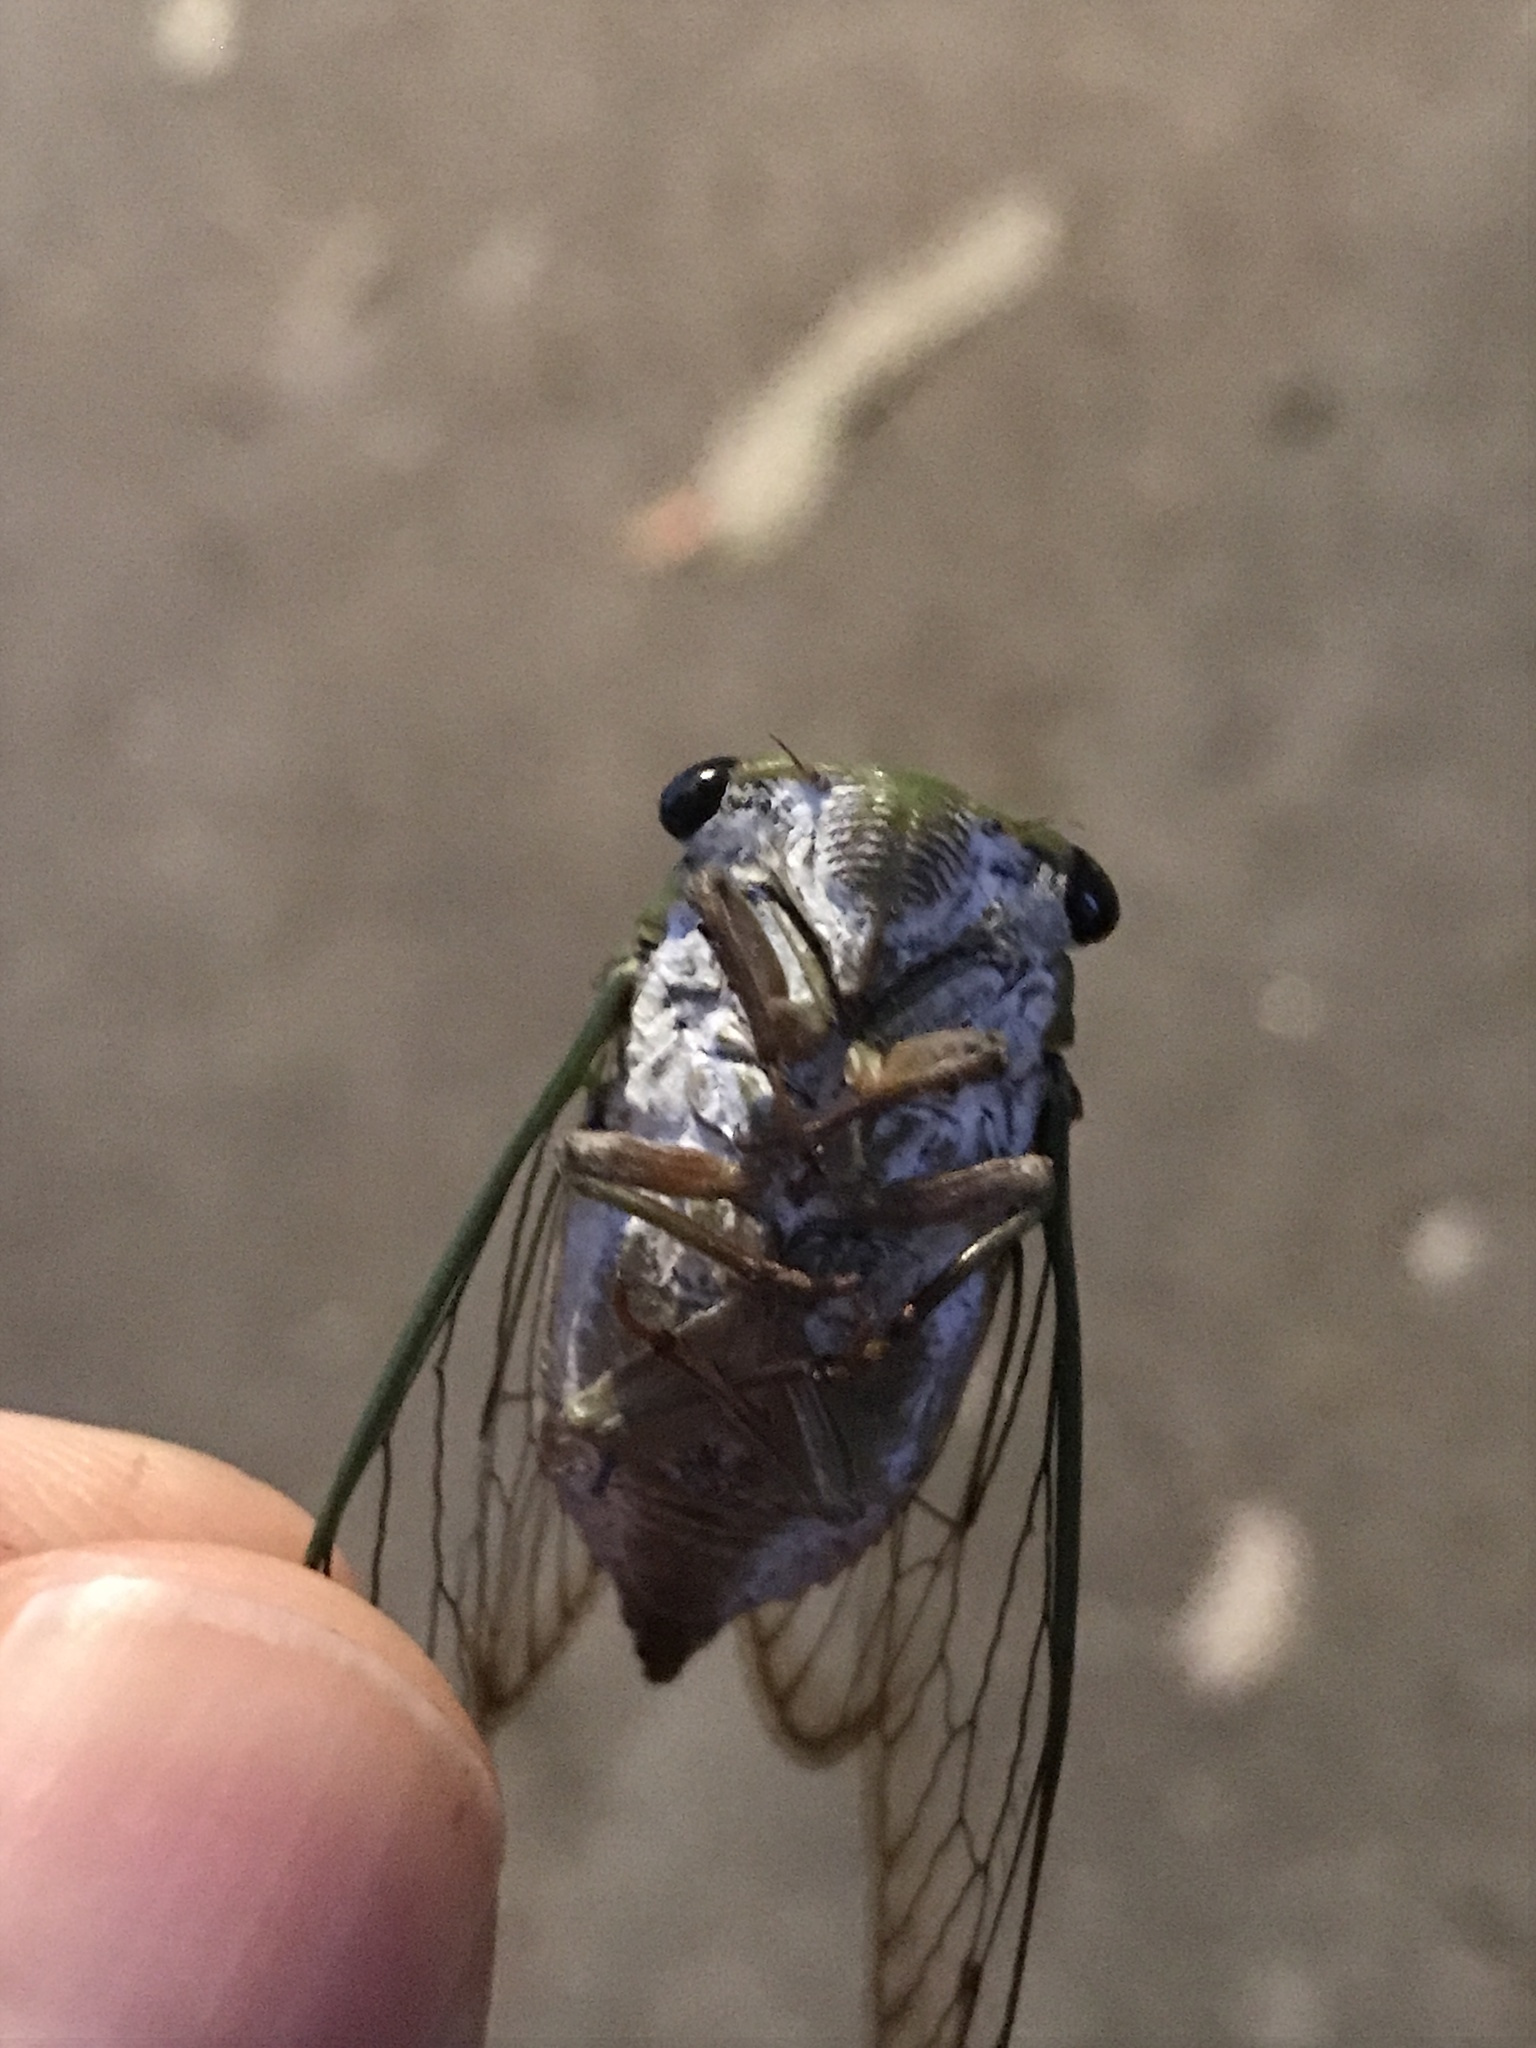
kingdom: Animalia
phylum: Arthropoda
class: Insecta
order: Hemiptera
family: Cicadidae
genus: Neotibicen
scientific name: Neotibicen superbus
